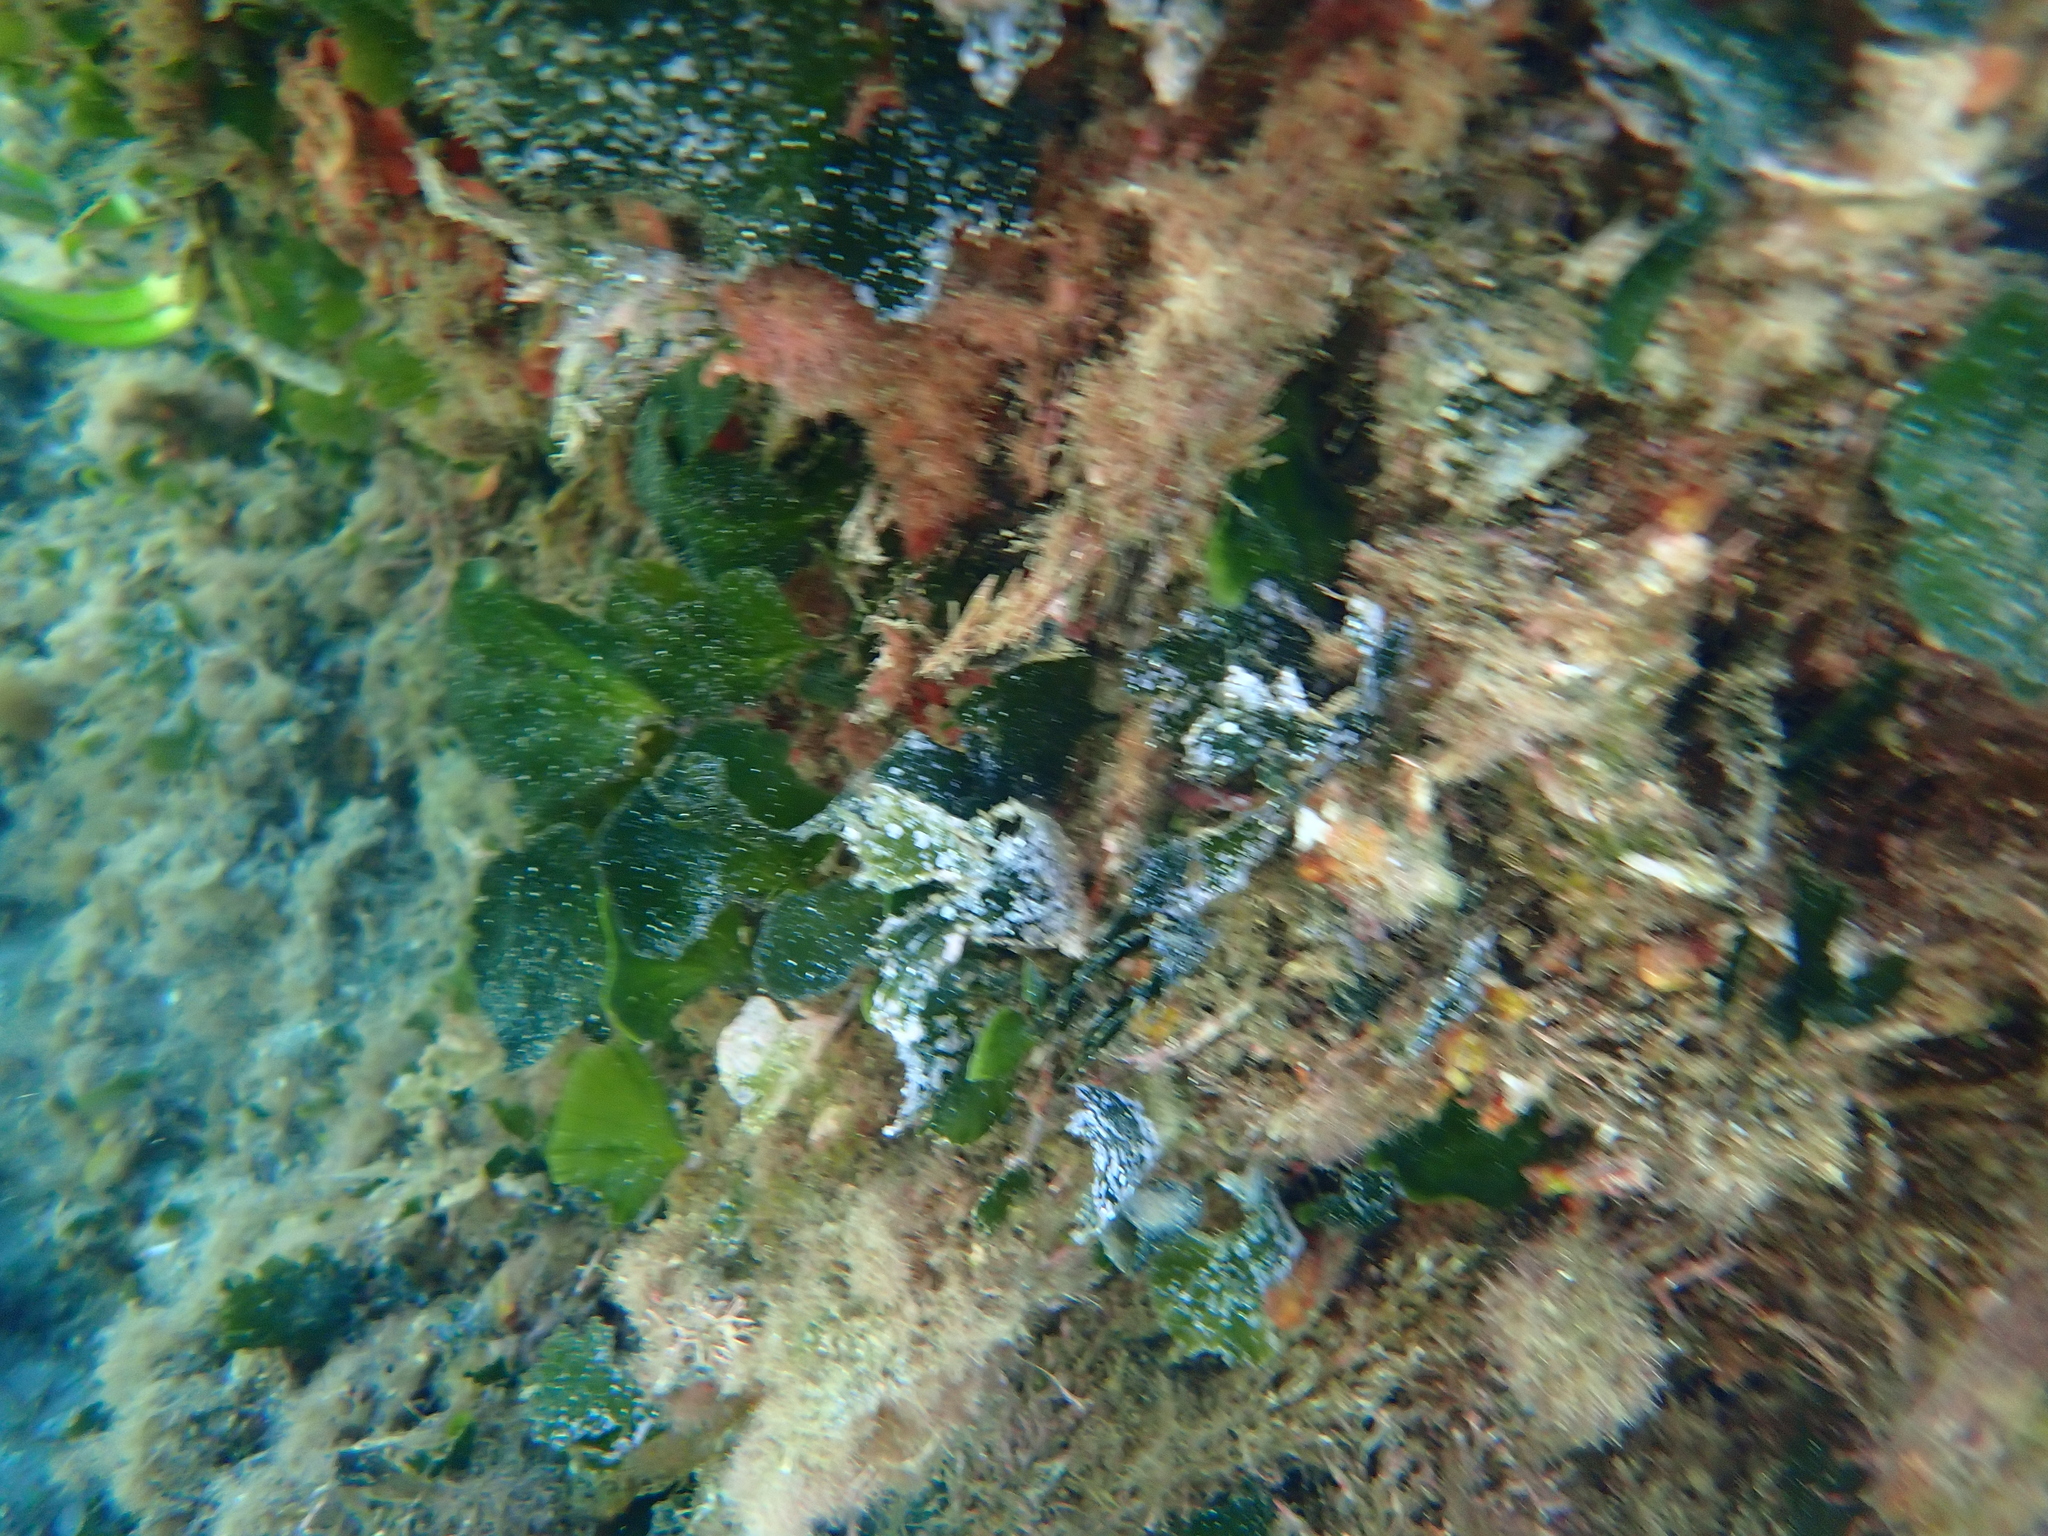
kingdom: Plantae
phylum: Chlorophyta
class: Ulvophyceae
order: Bryopsidales
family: Codiaceae
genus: Codium
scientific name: Codium Flabellia petiolata
